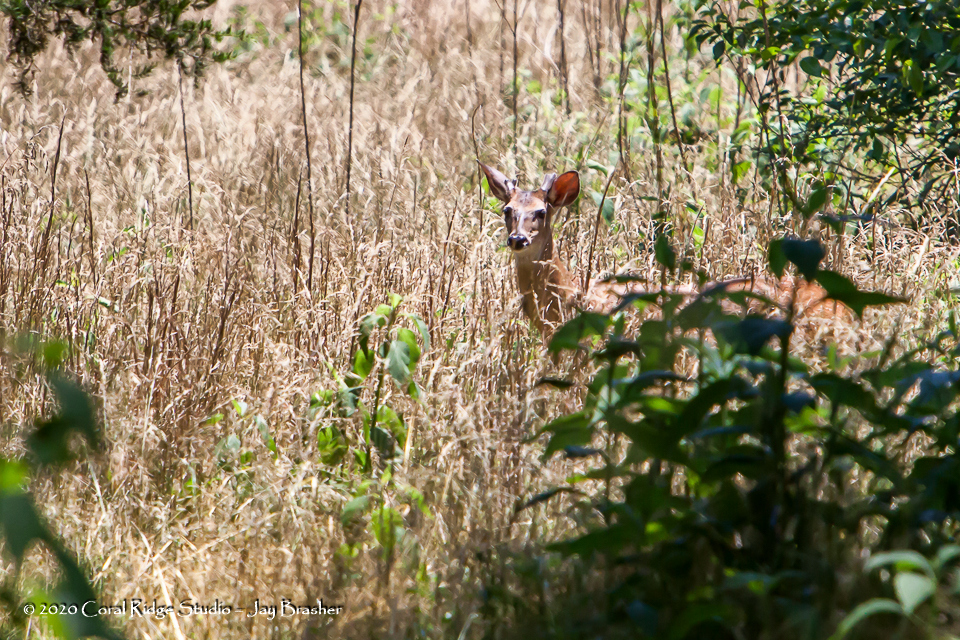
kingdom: Animalia
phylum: Chordata
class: Mammalia
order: Artiodactyla
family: Cervidae
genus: Odocoileus
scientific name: Odocoileus virginianus
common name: White-tailed deer
